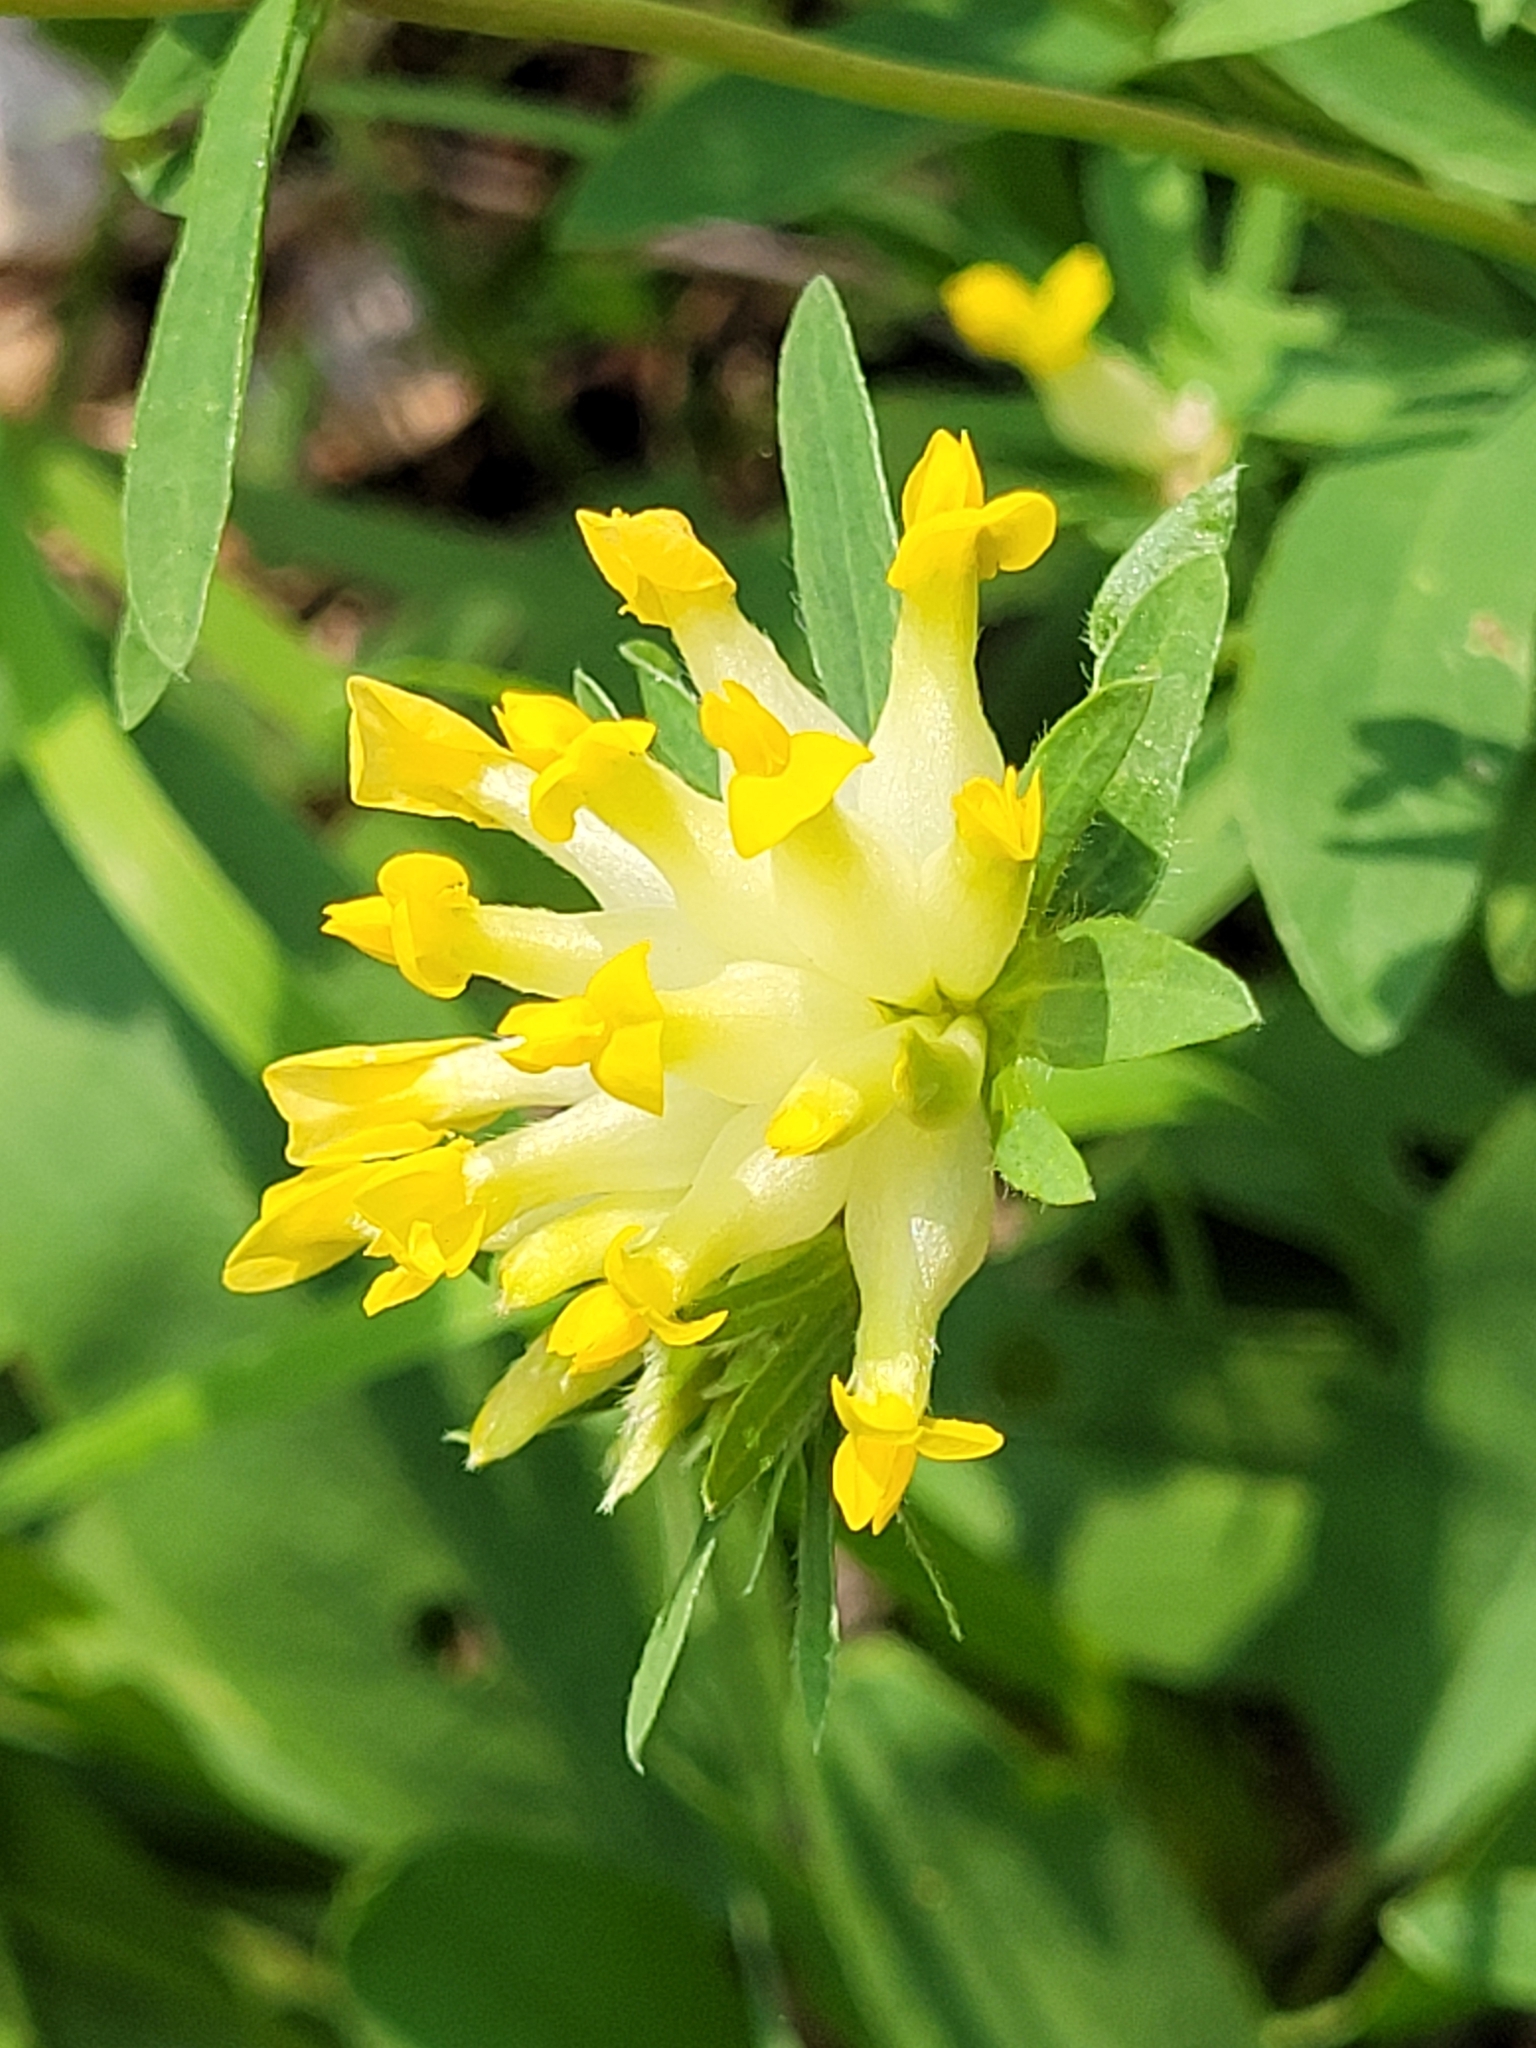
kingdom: Plantae
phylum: Tracheophyta
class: Magnoliopsida
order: Fabales
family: Fabaceae
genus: Anthyllis
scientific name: Anthyllis vulneraria
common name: Kidney vetch
